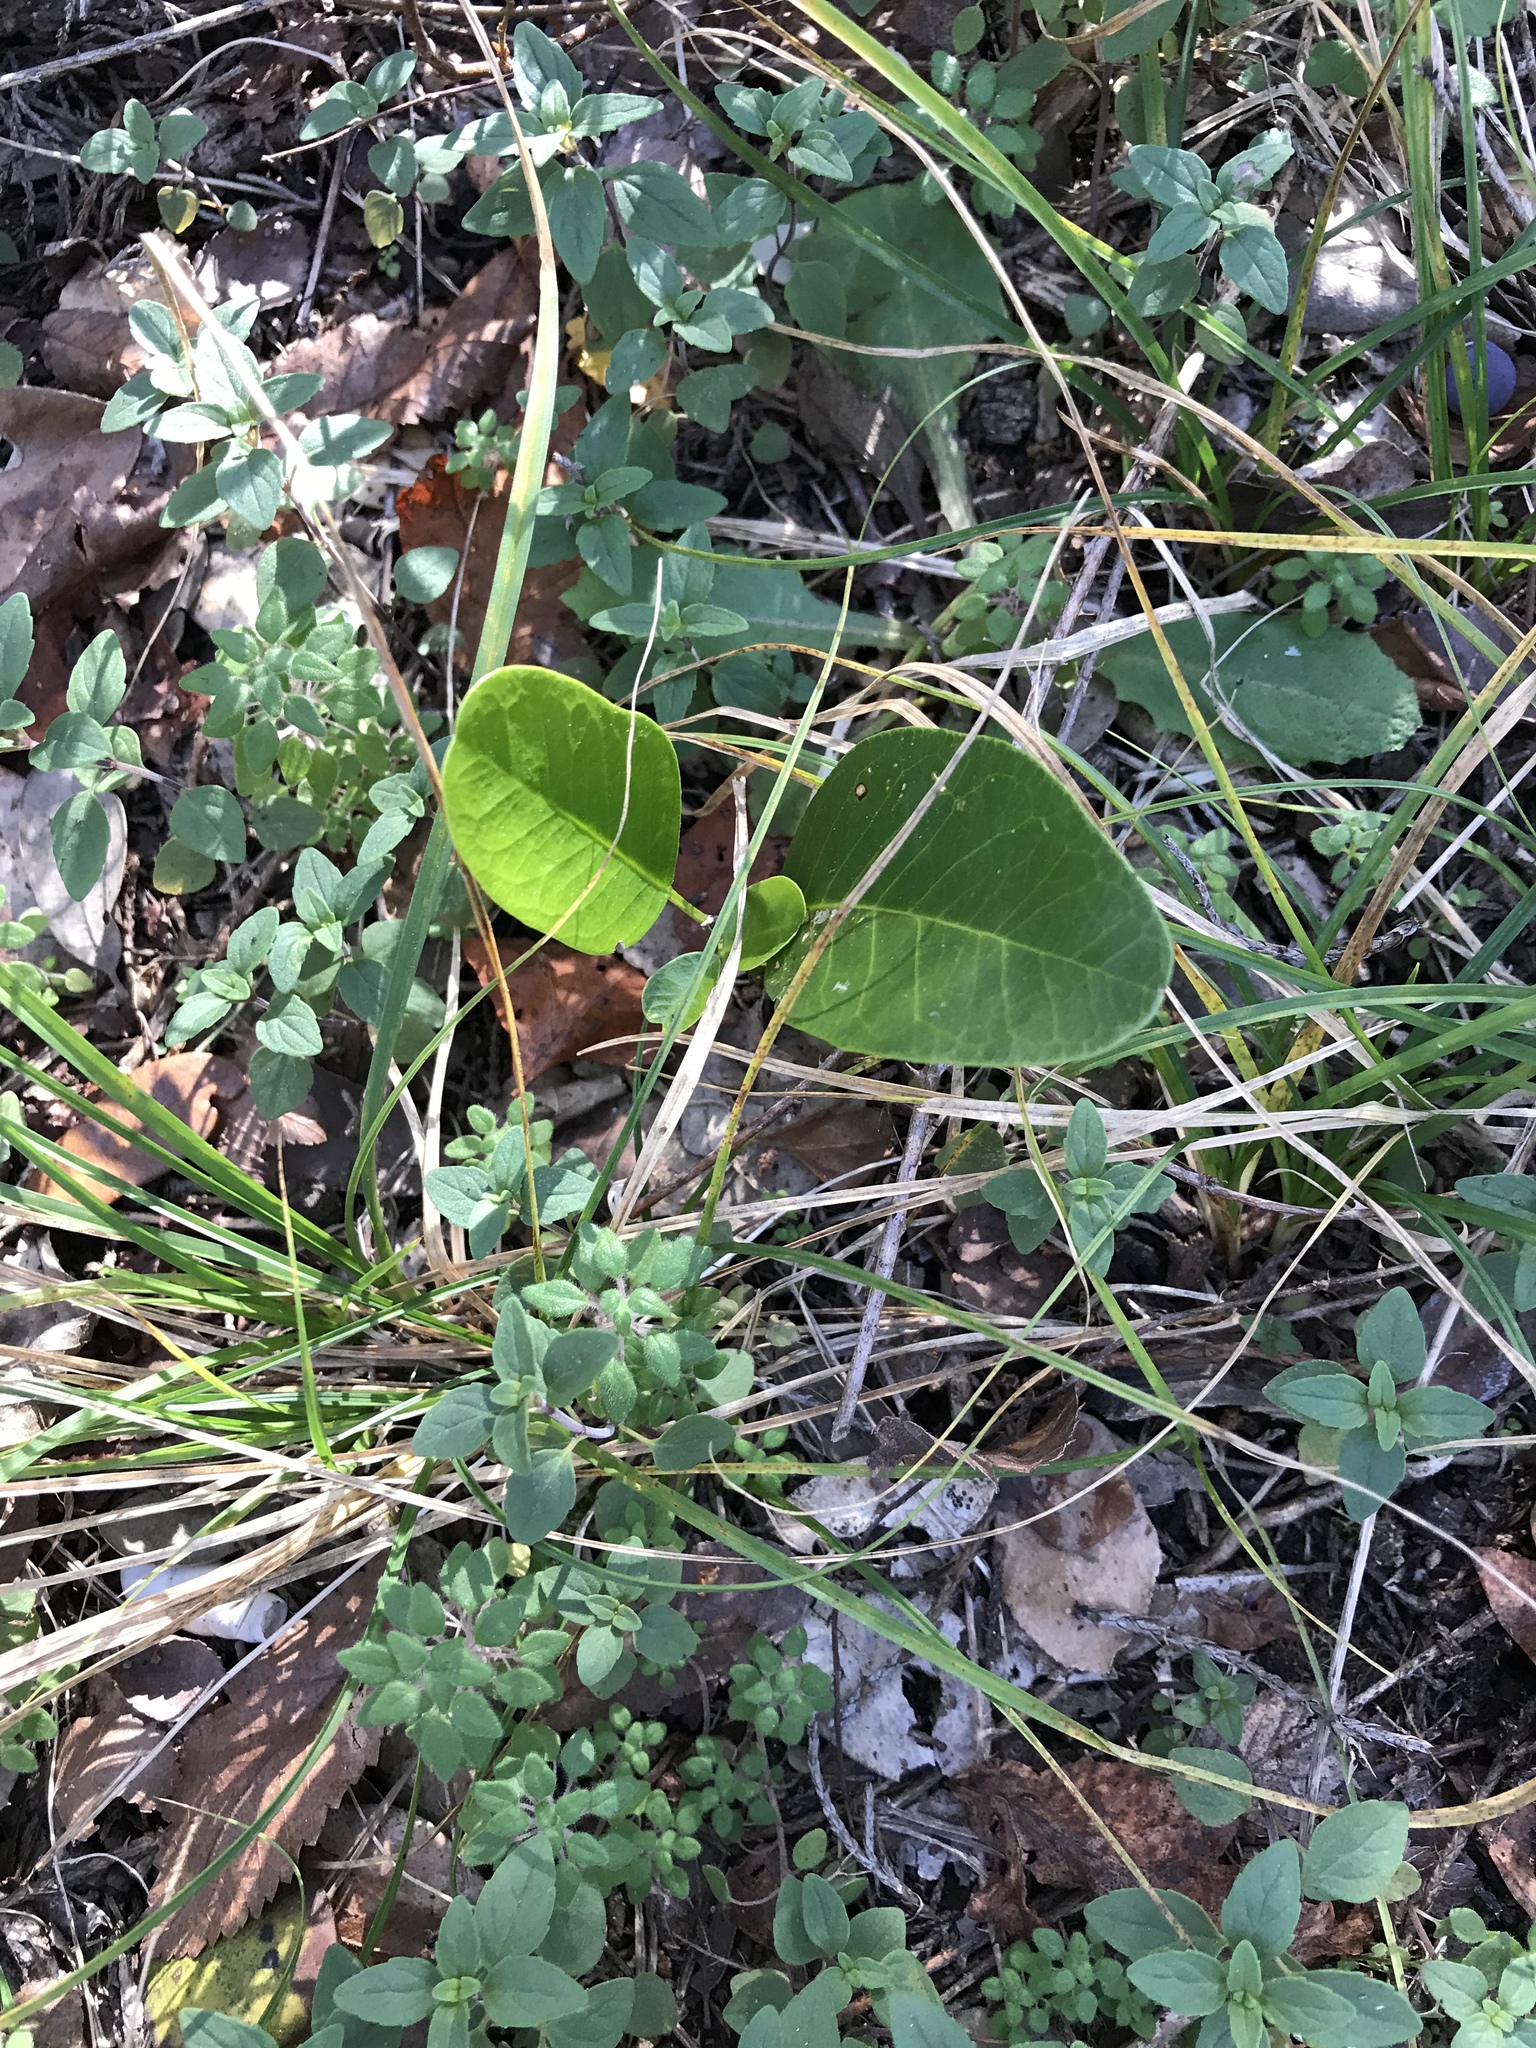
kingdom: Plantae
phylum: Tracheophyta
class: Magnoliopsida
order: Fabales
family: Fabaceae
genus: Dermatophyllum
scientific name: Dermatophyllum secundiflorum
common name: Texas-mountain-laurel
